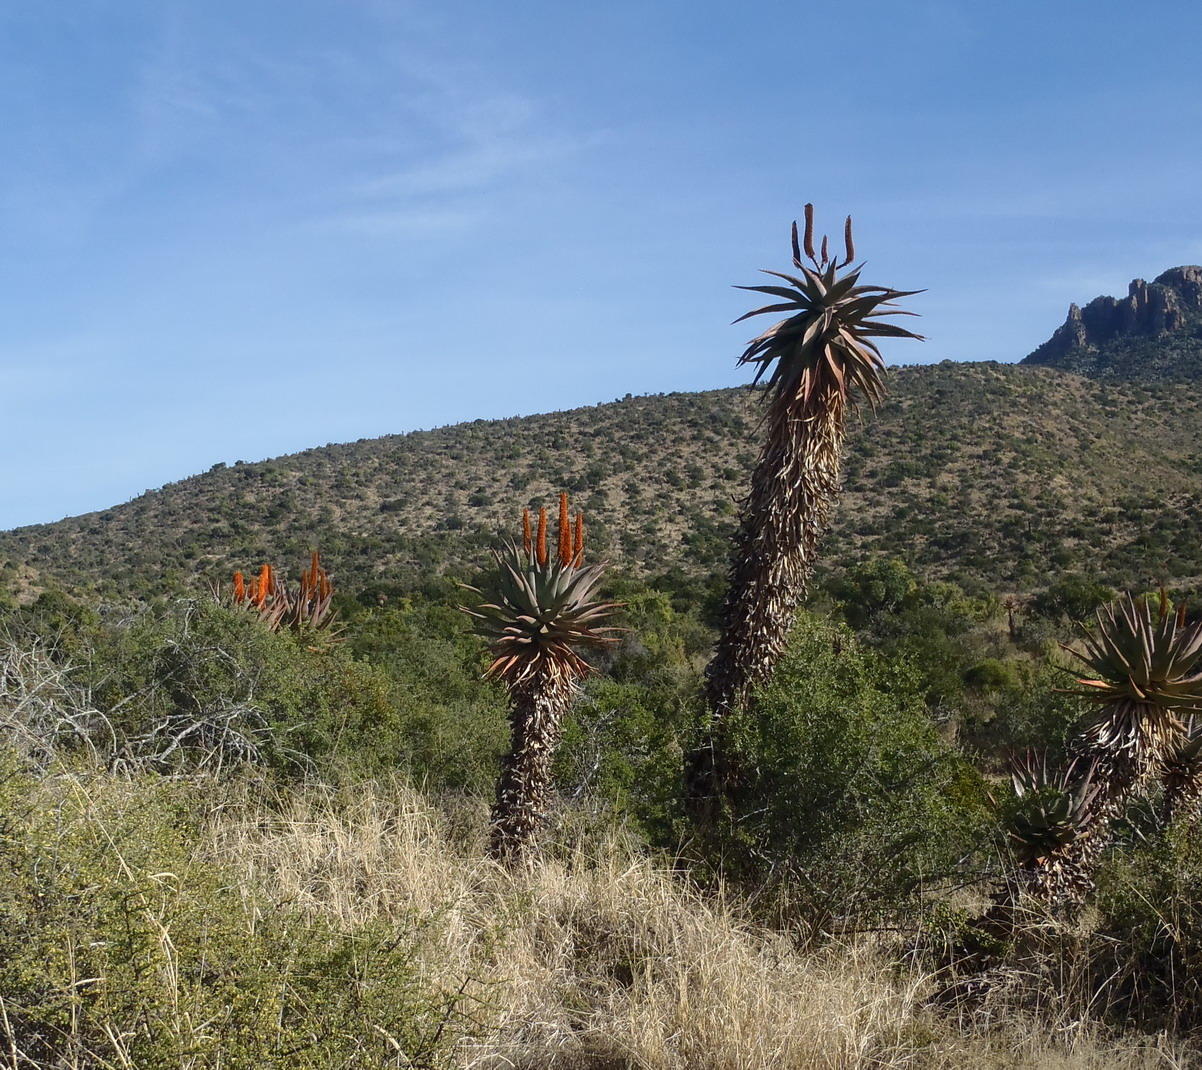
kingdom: Plantae
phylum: Tracheophyta
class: Liliopsida
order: Asparagales
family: Asphodelaceae
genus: Aloe
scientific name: Aloe ferox
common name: Bitter aloe
